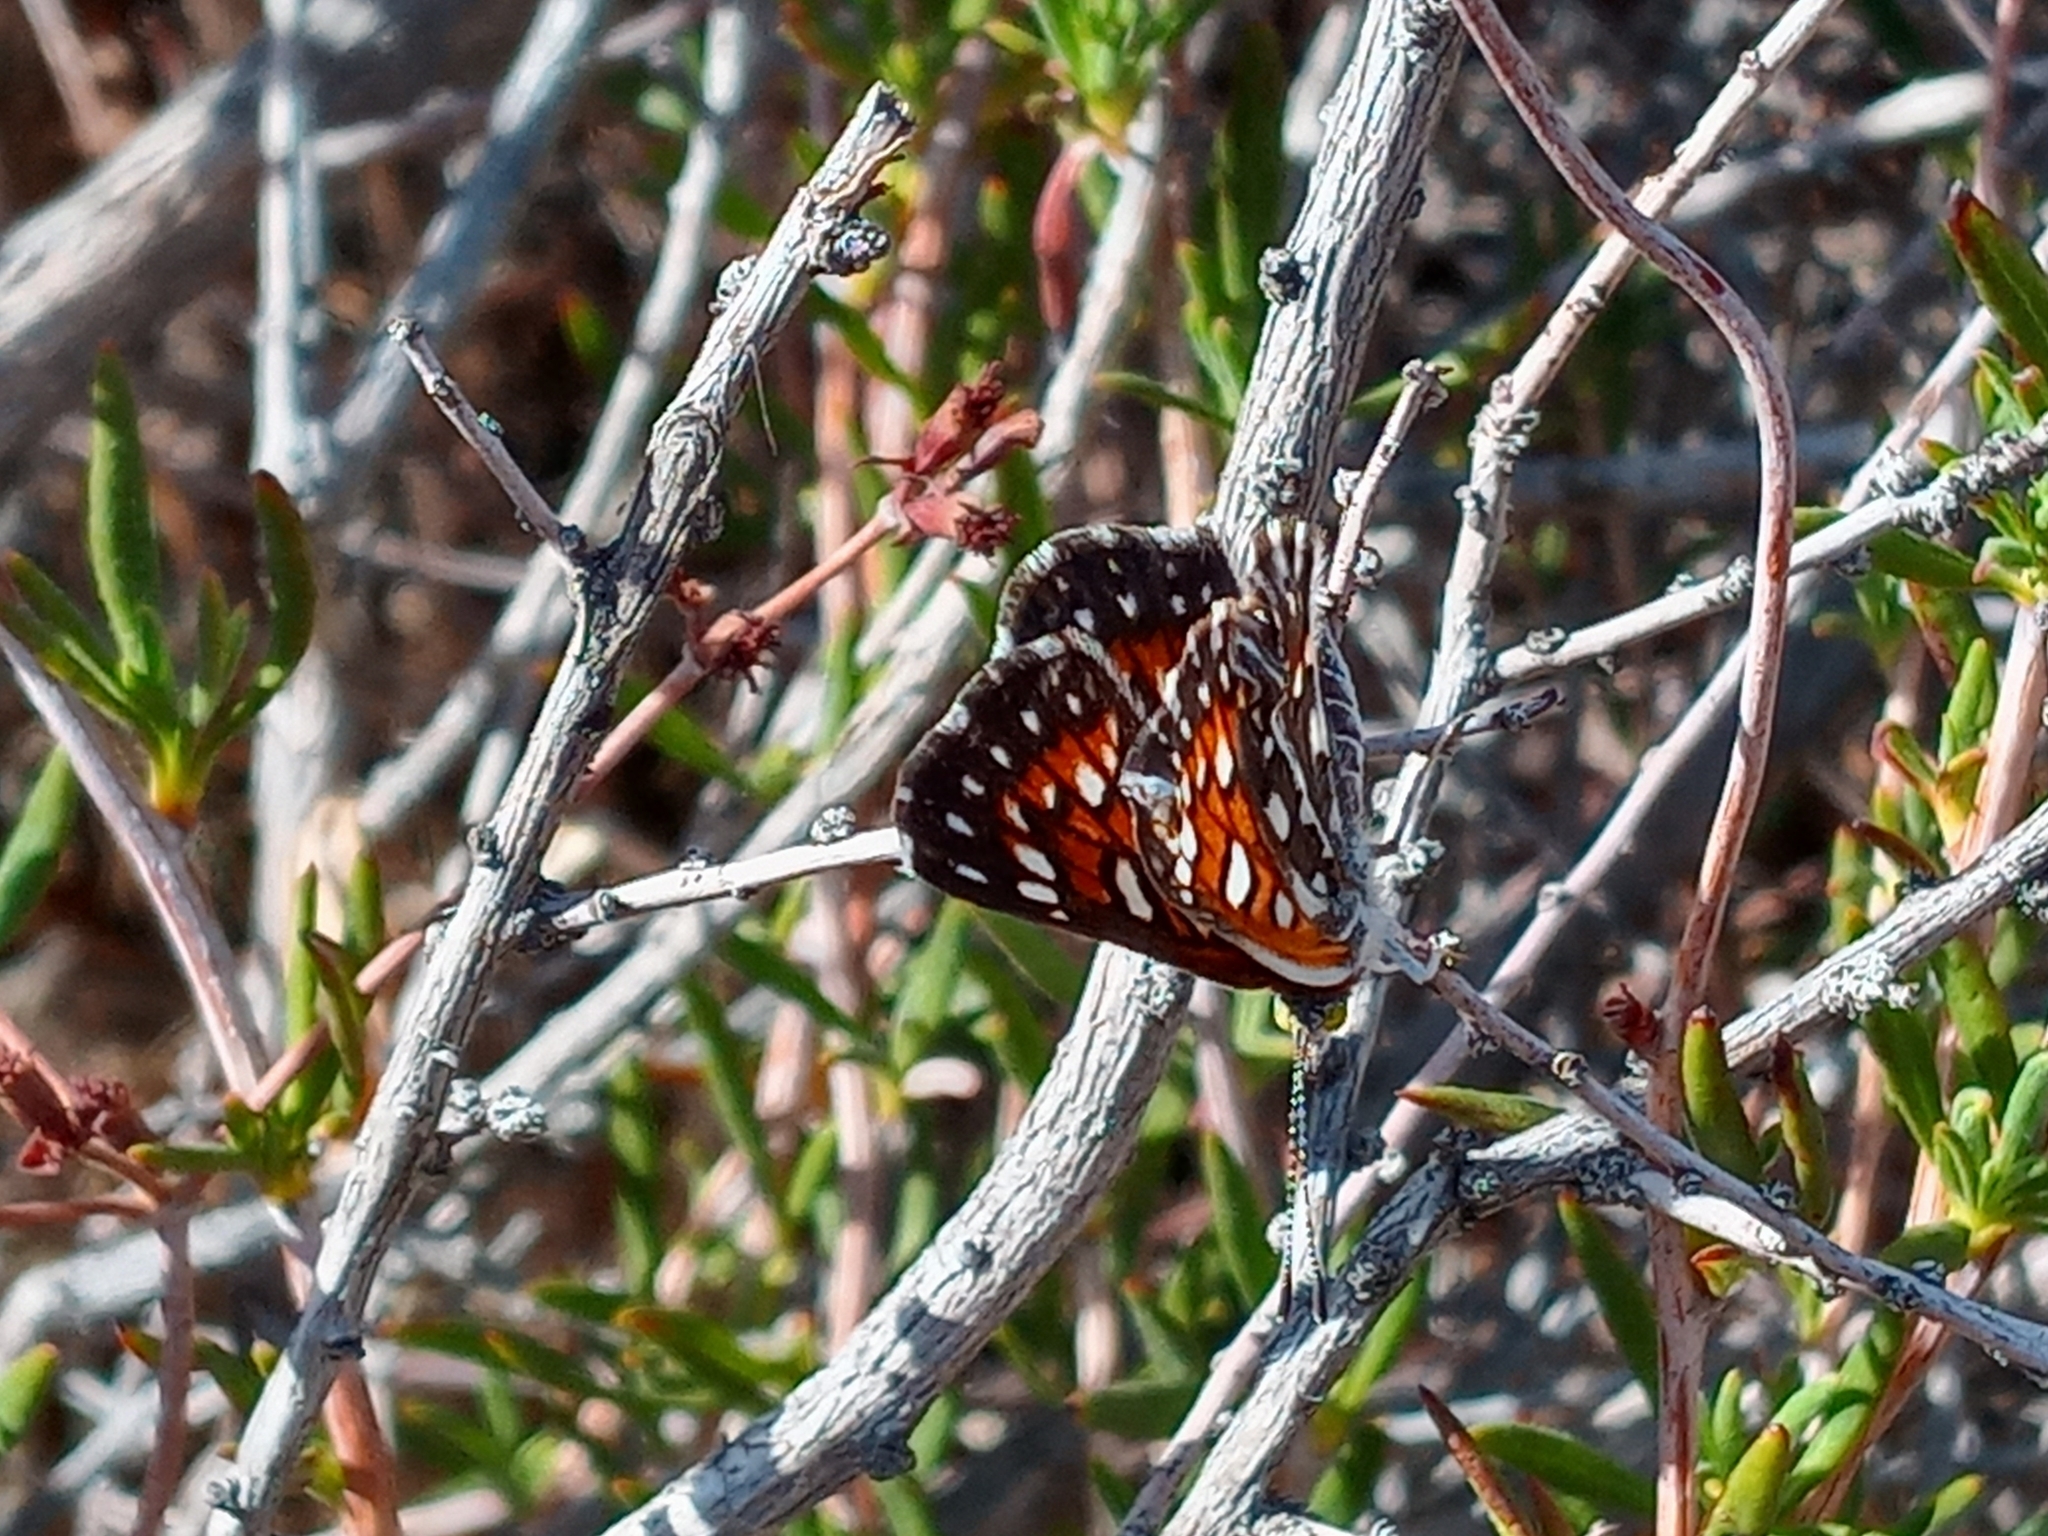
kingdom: Animalia
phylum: Arthropoda
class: Insecta
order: Lepidoptera
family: Riodinidae
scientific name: Riodinidae
